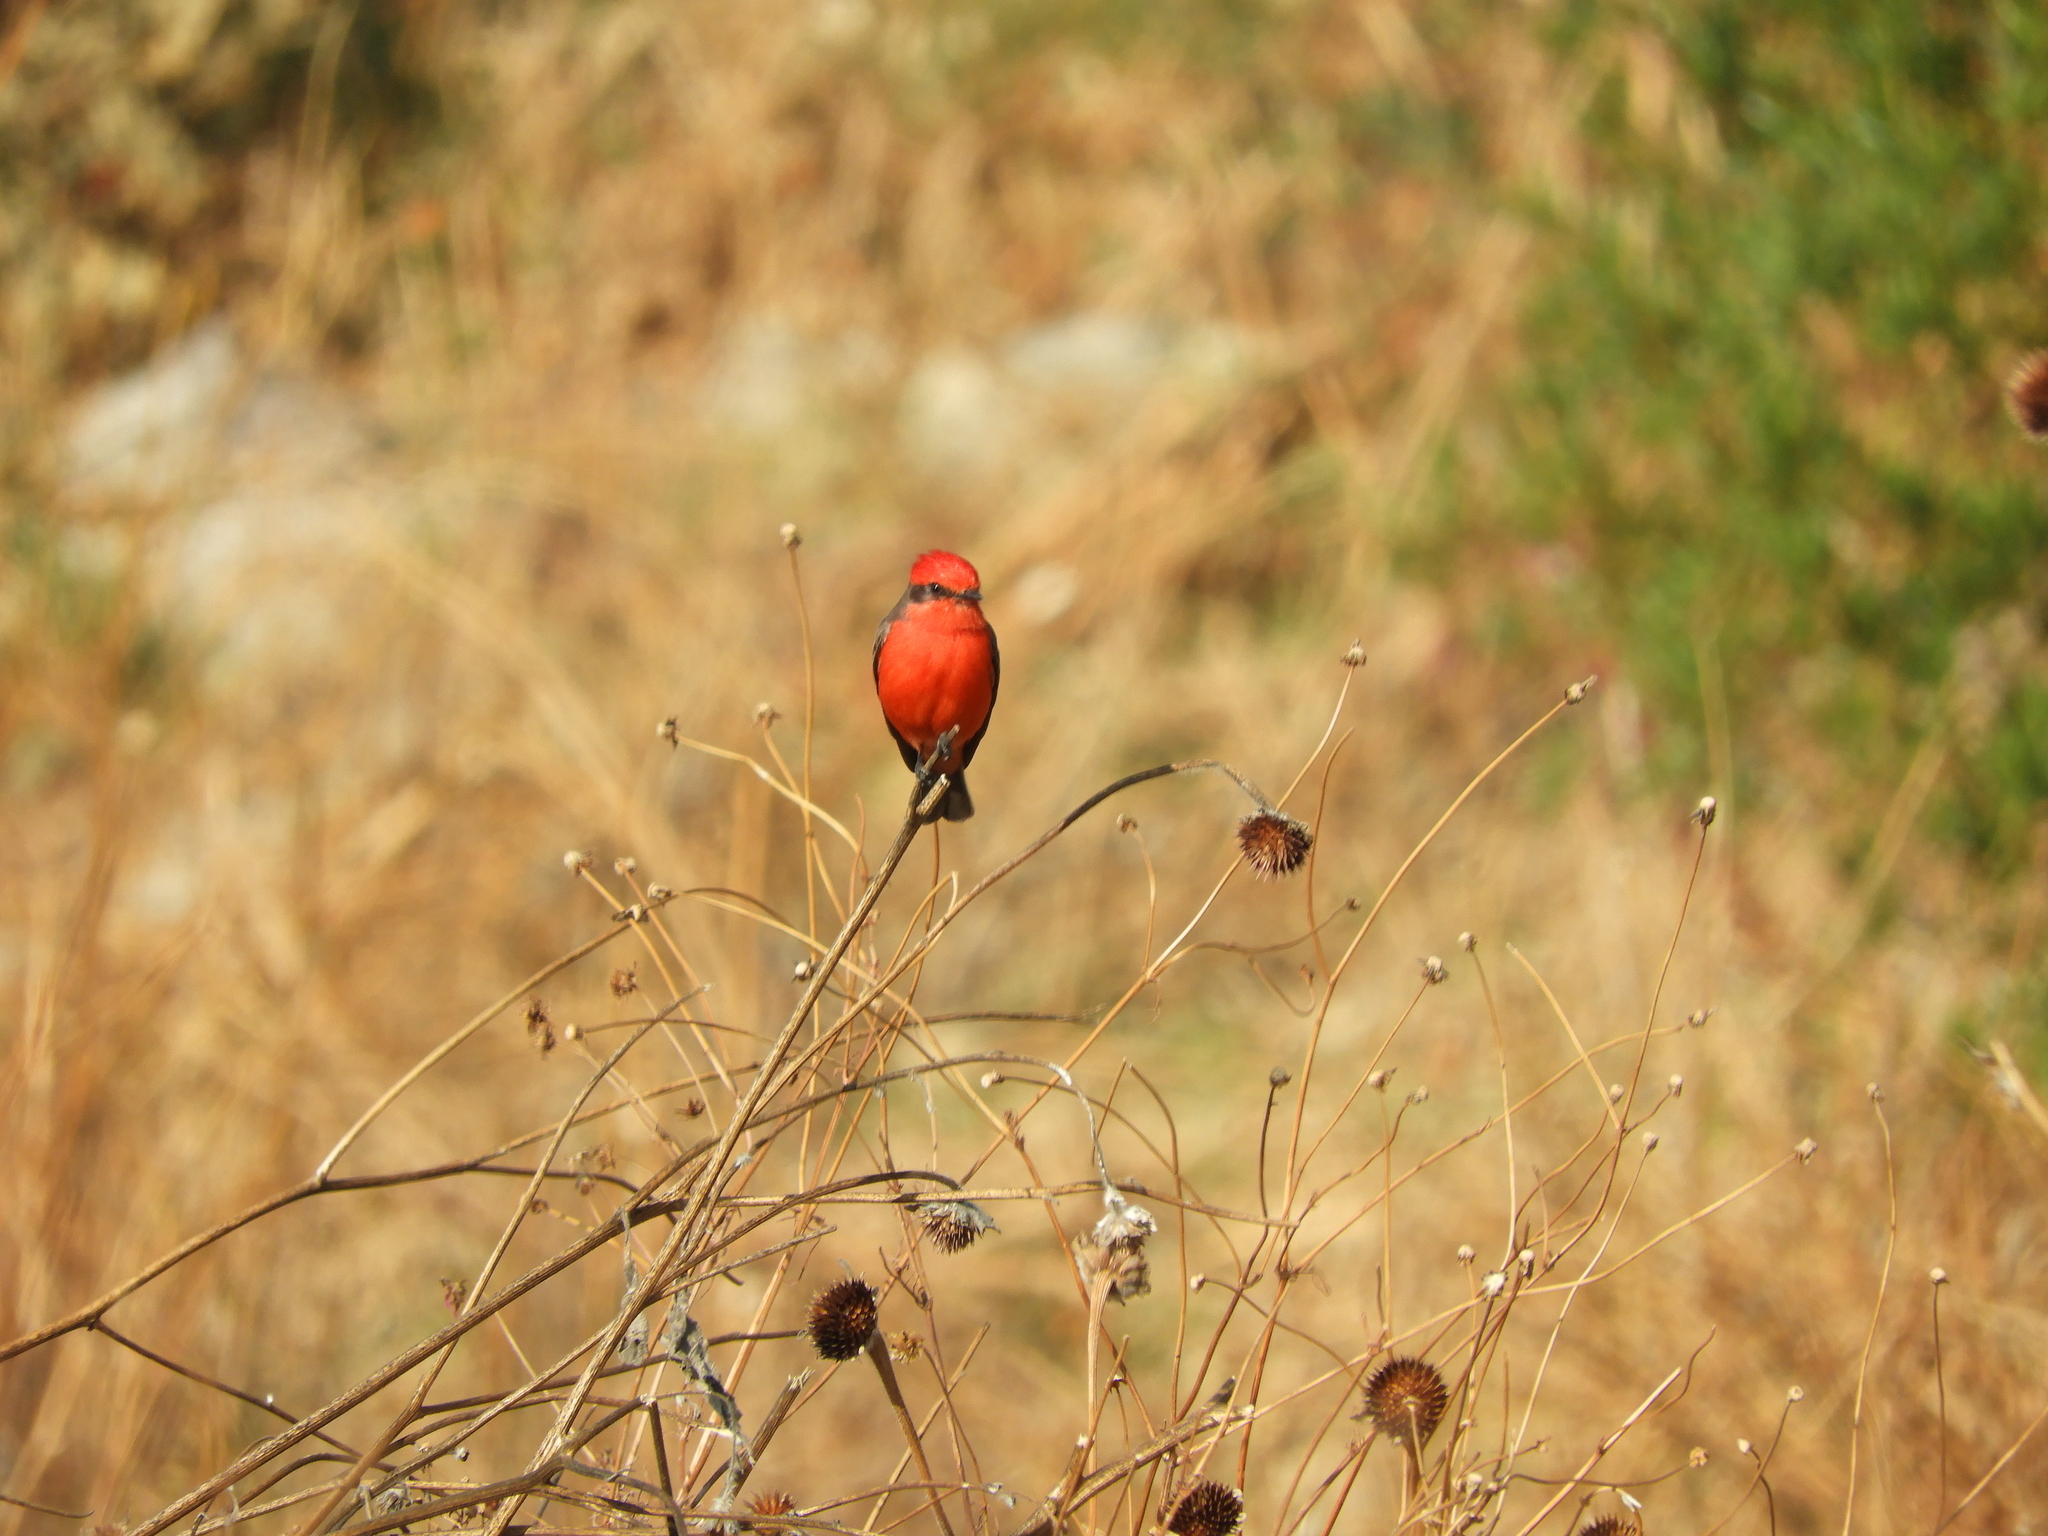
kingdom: Animalia
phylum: Chordata
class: Aves
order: Passeriformes
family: Tyrannidae
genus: Pyrocephalus
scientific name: Pyrocephalus rubinus
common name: Vermilion flycatcher
